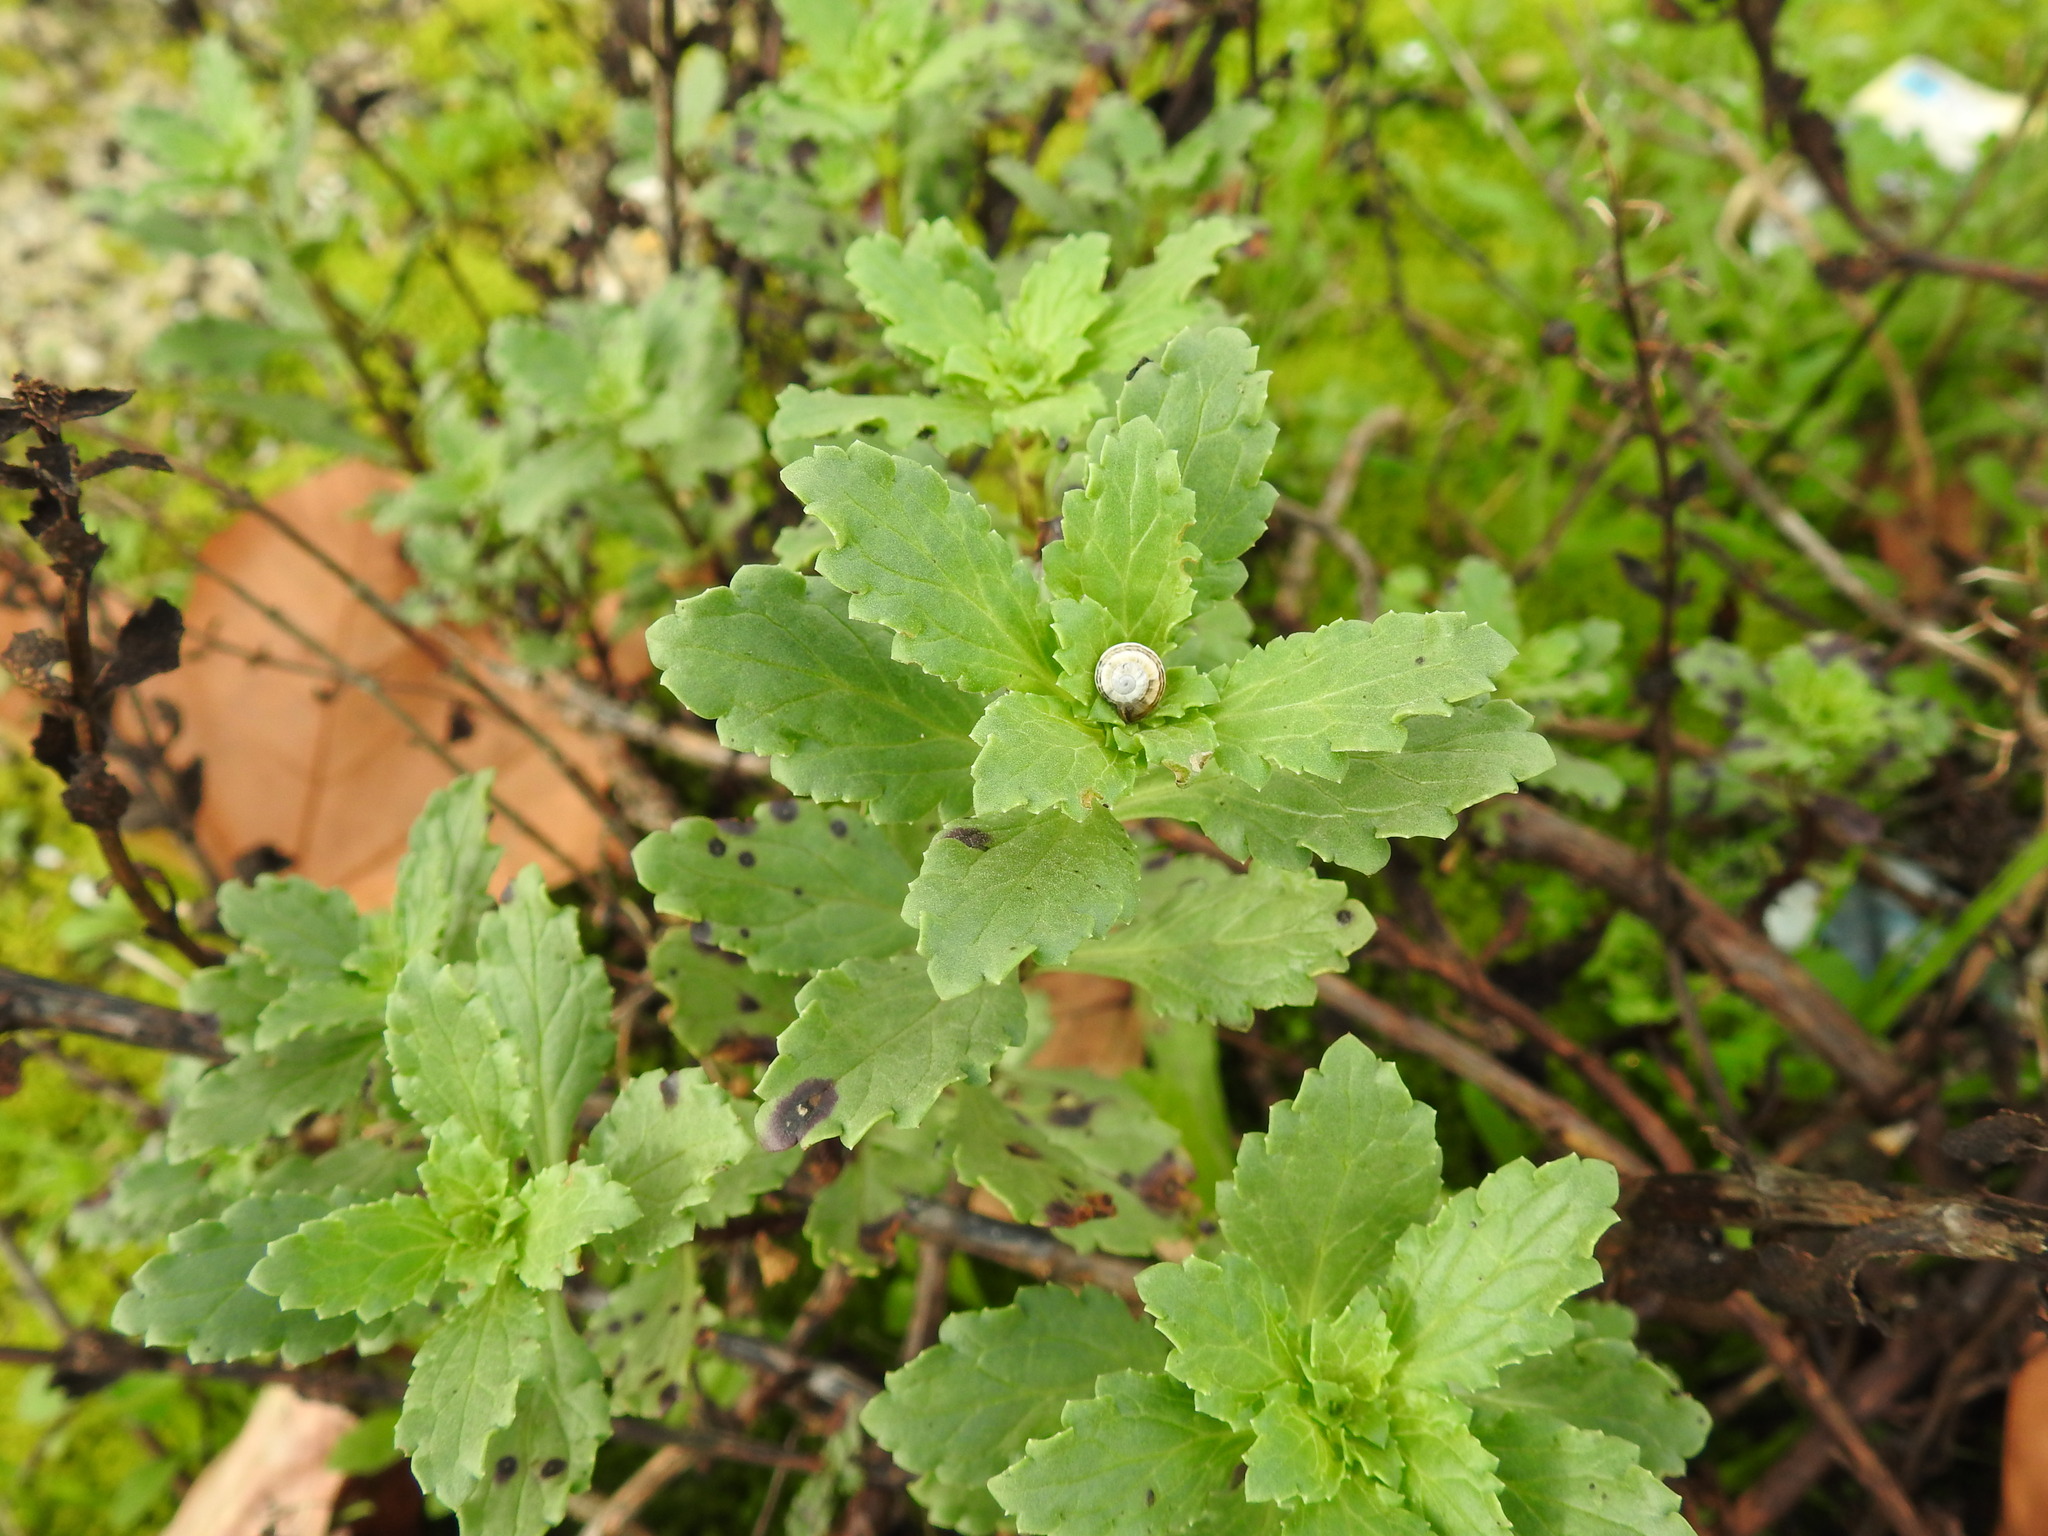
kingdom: Plantae
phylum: Tracheophyta
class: Magnoliopsida
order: Lamiales
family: Scrophulariaceae
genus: Scrophularia
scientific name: Scrophularia frutescens
